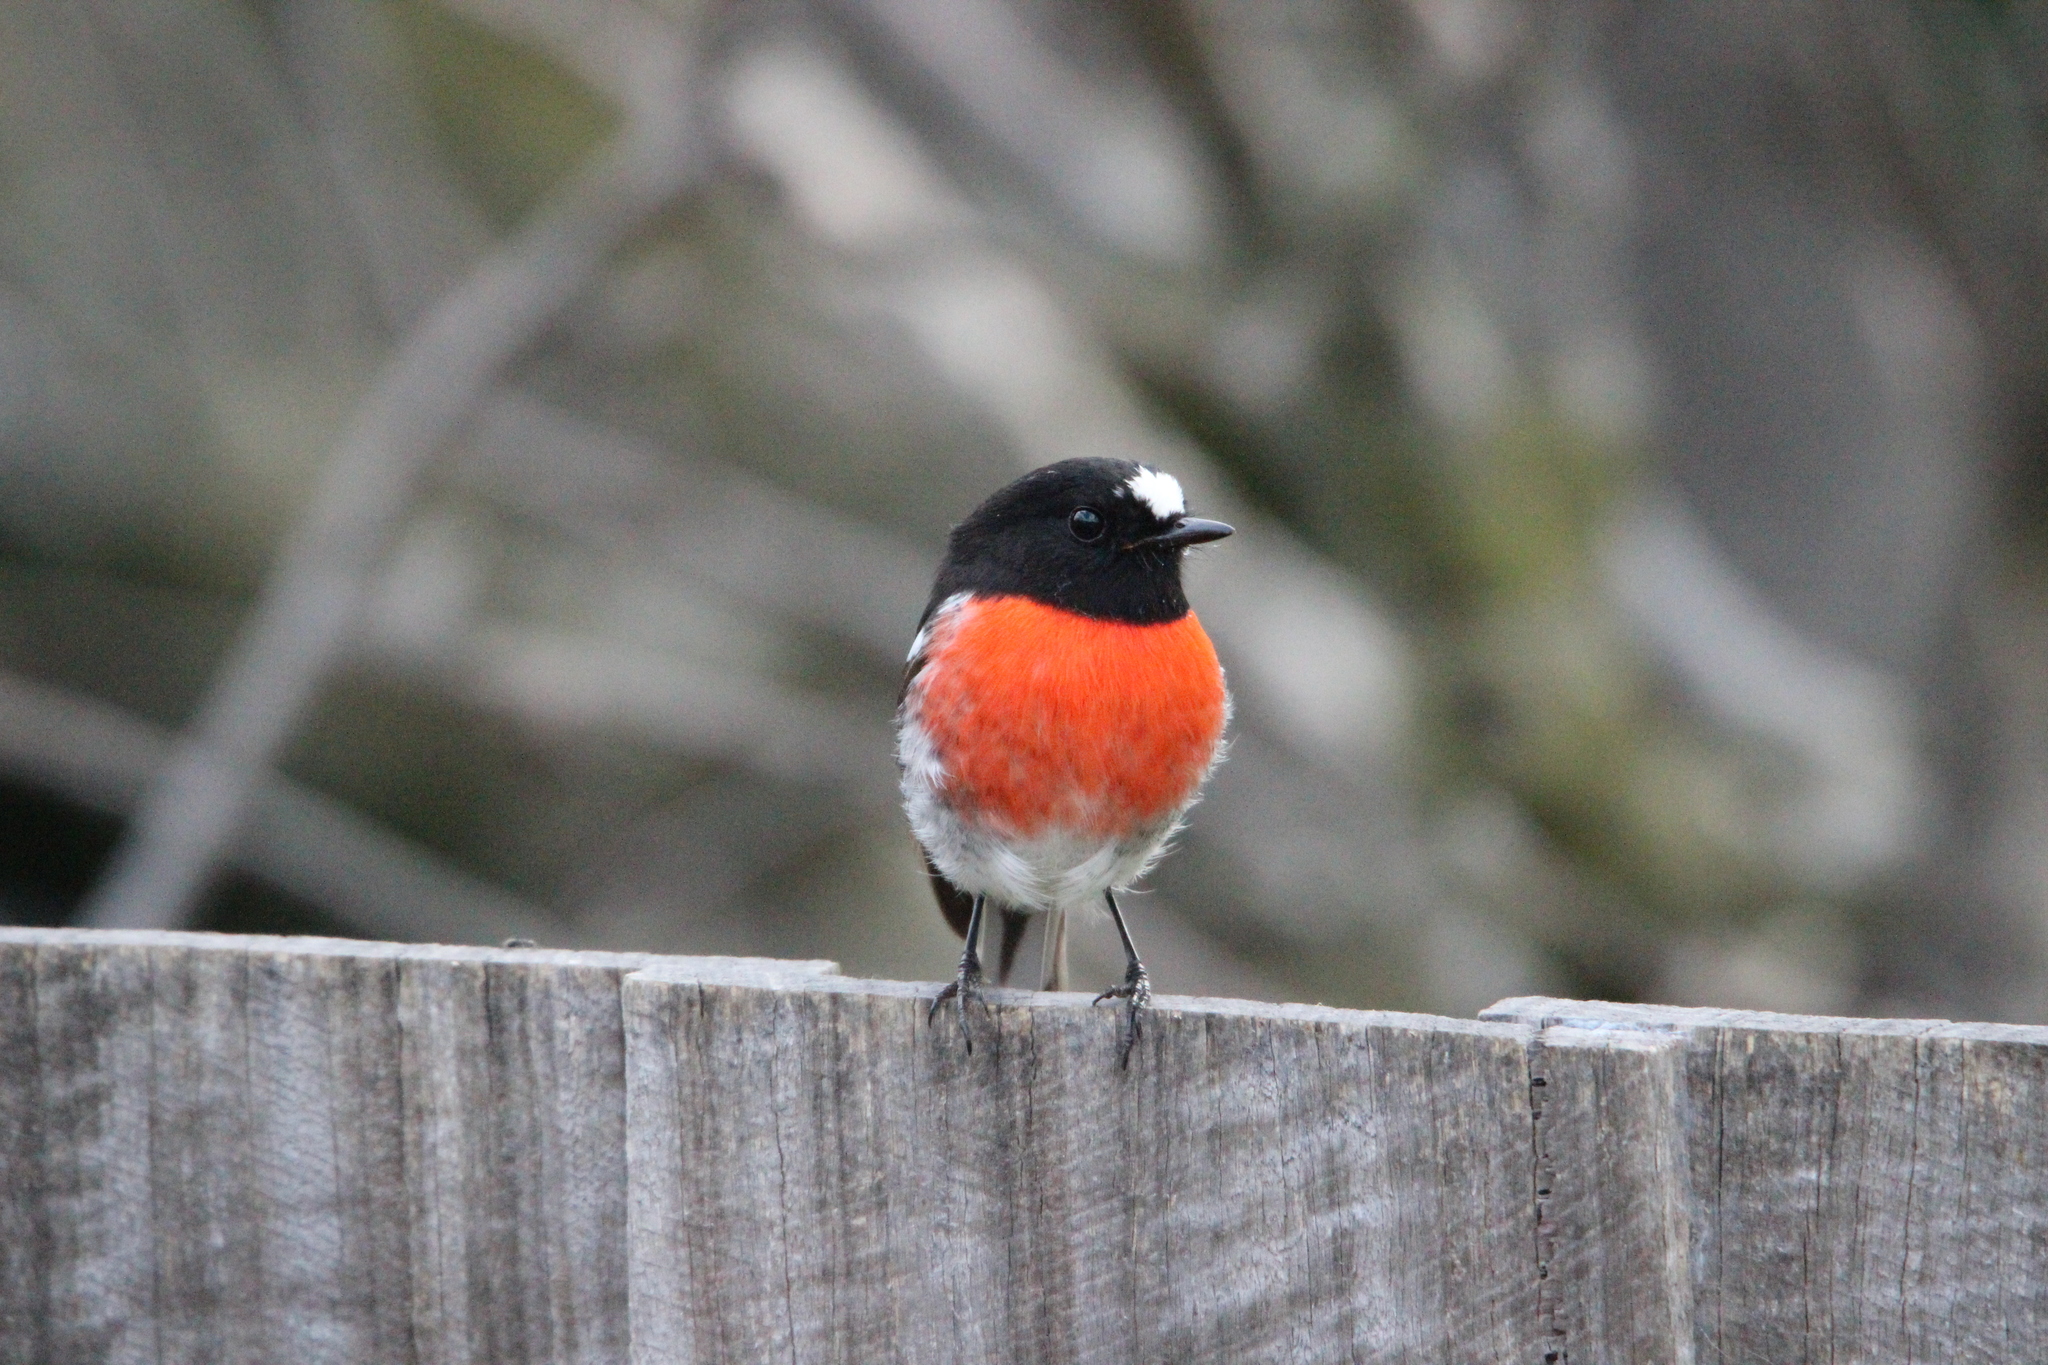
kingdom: Animalia
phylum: Chordata
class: Aves
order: Passeriformes
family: Petroicidae
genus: Petroica
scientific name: Petroica boodang
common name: Scarlet robin
